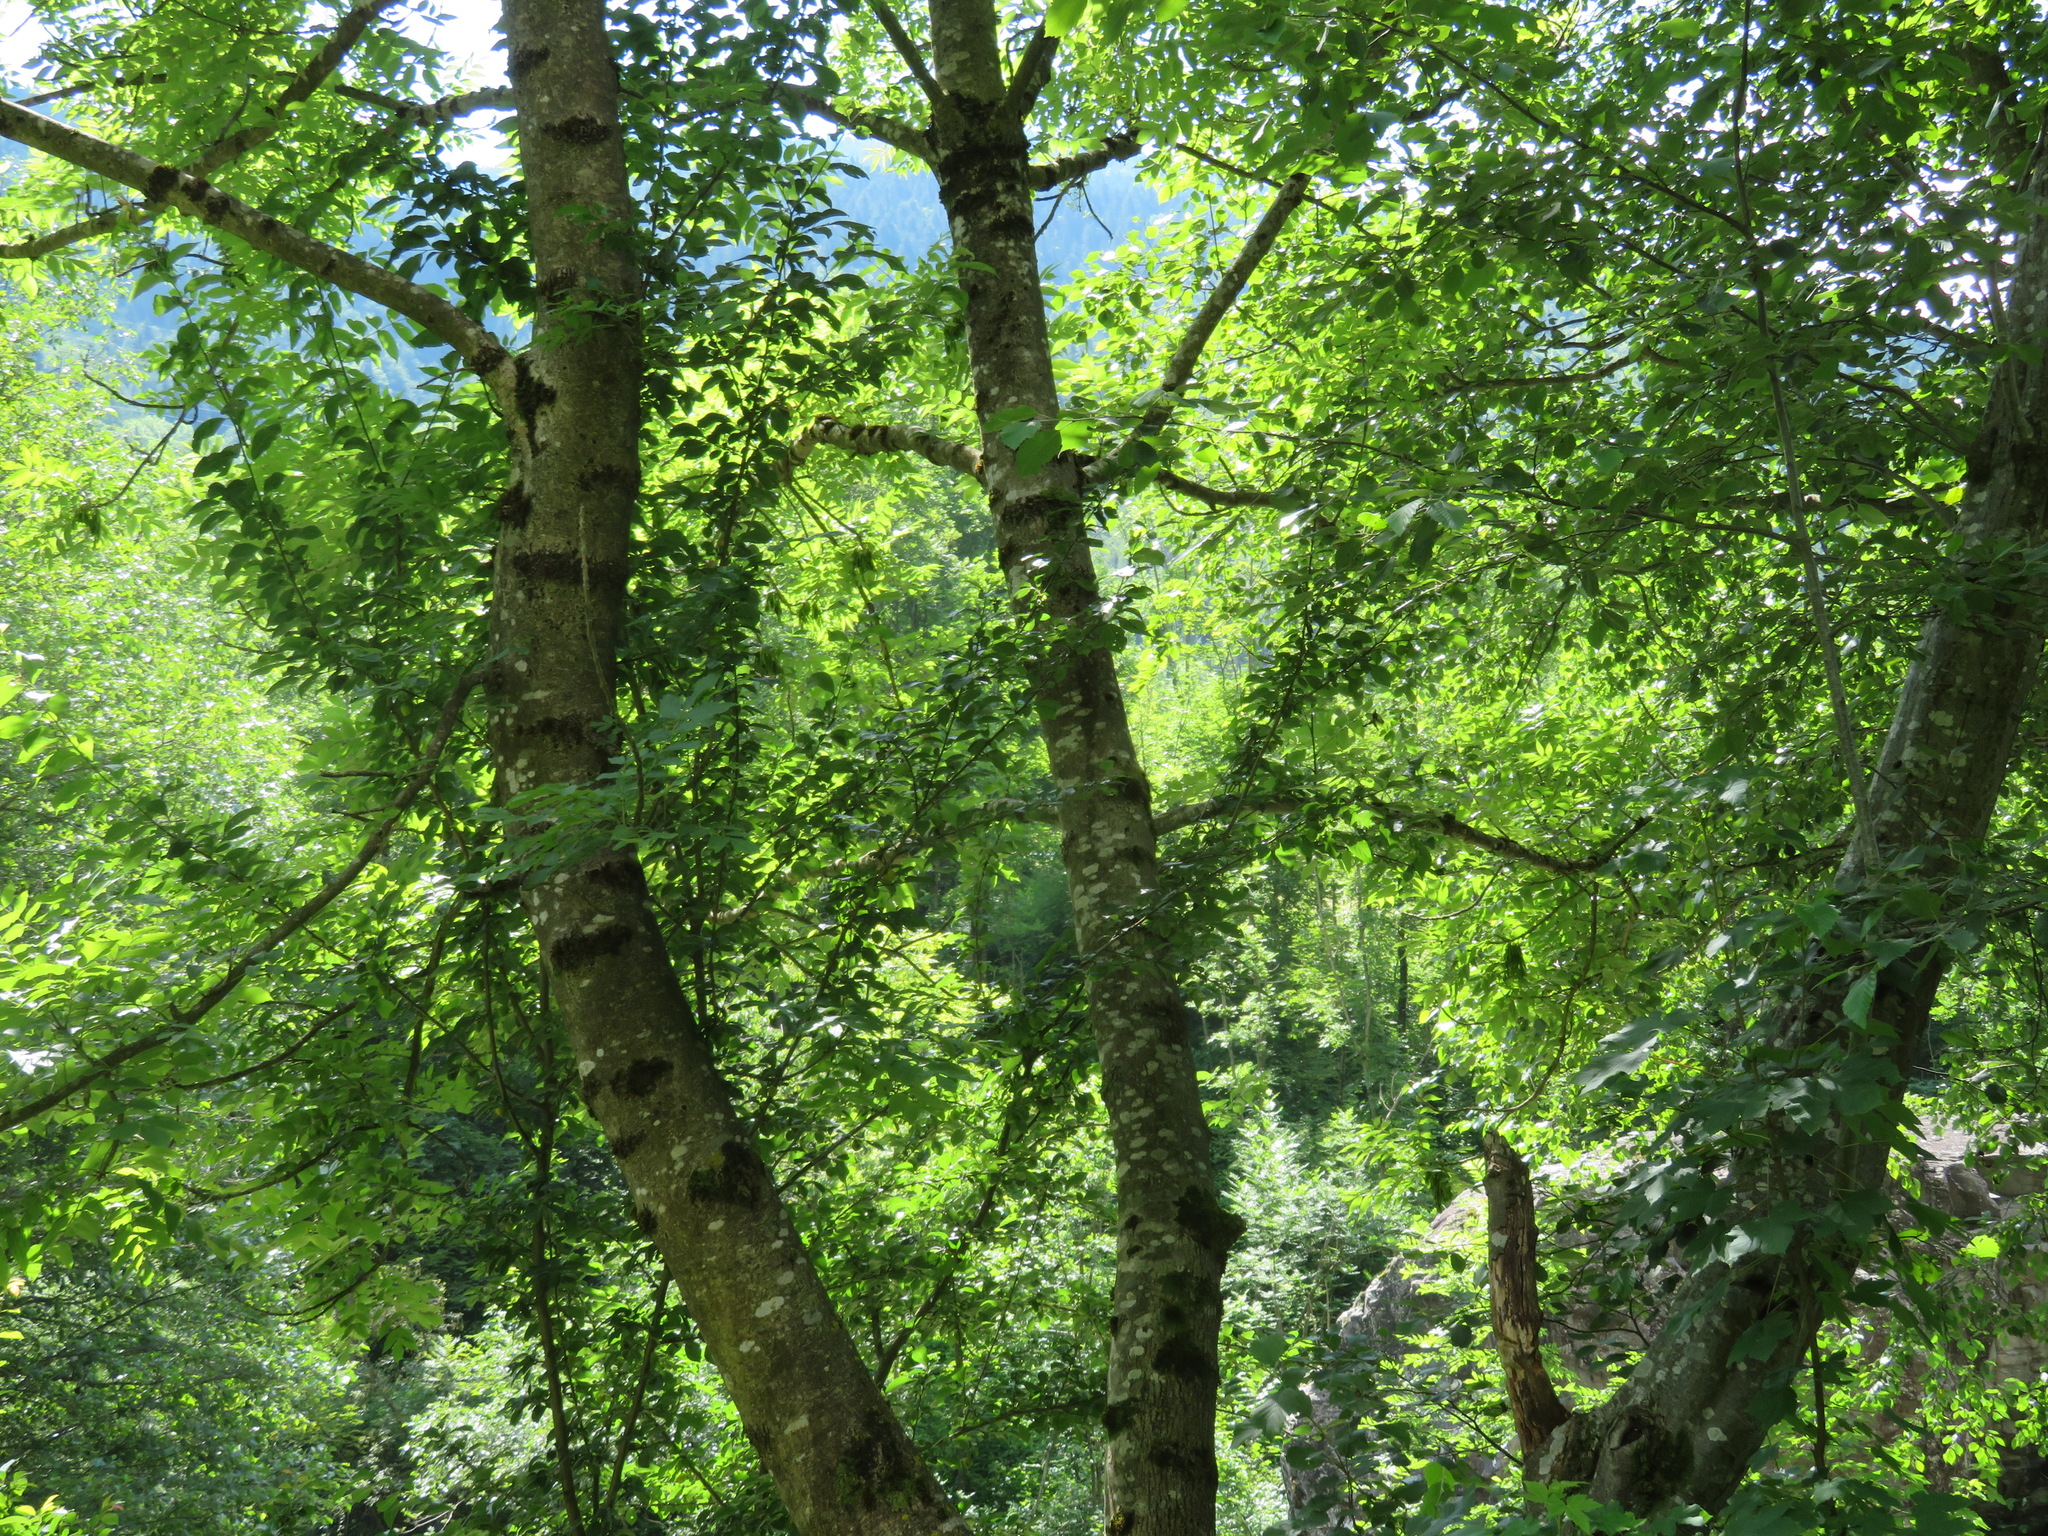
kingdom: Plantae
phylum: Tracheophyta
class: Magnoliopsida
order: Lamiales
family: Oleaceae
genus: Fraxinus
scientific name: Fraxinus excelsior
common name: European ash
